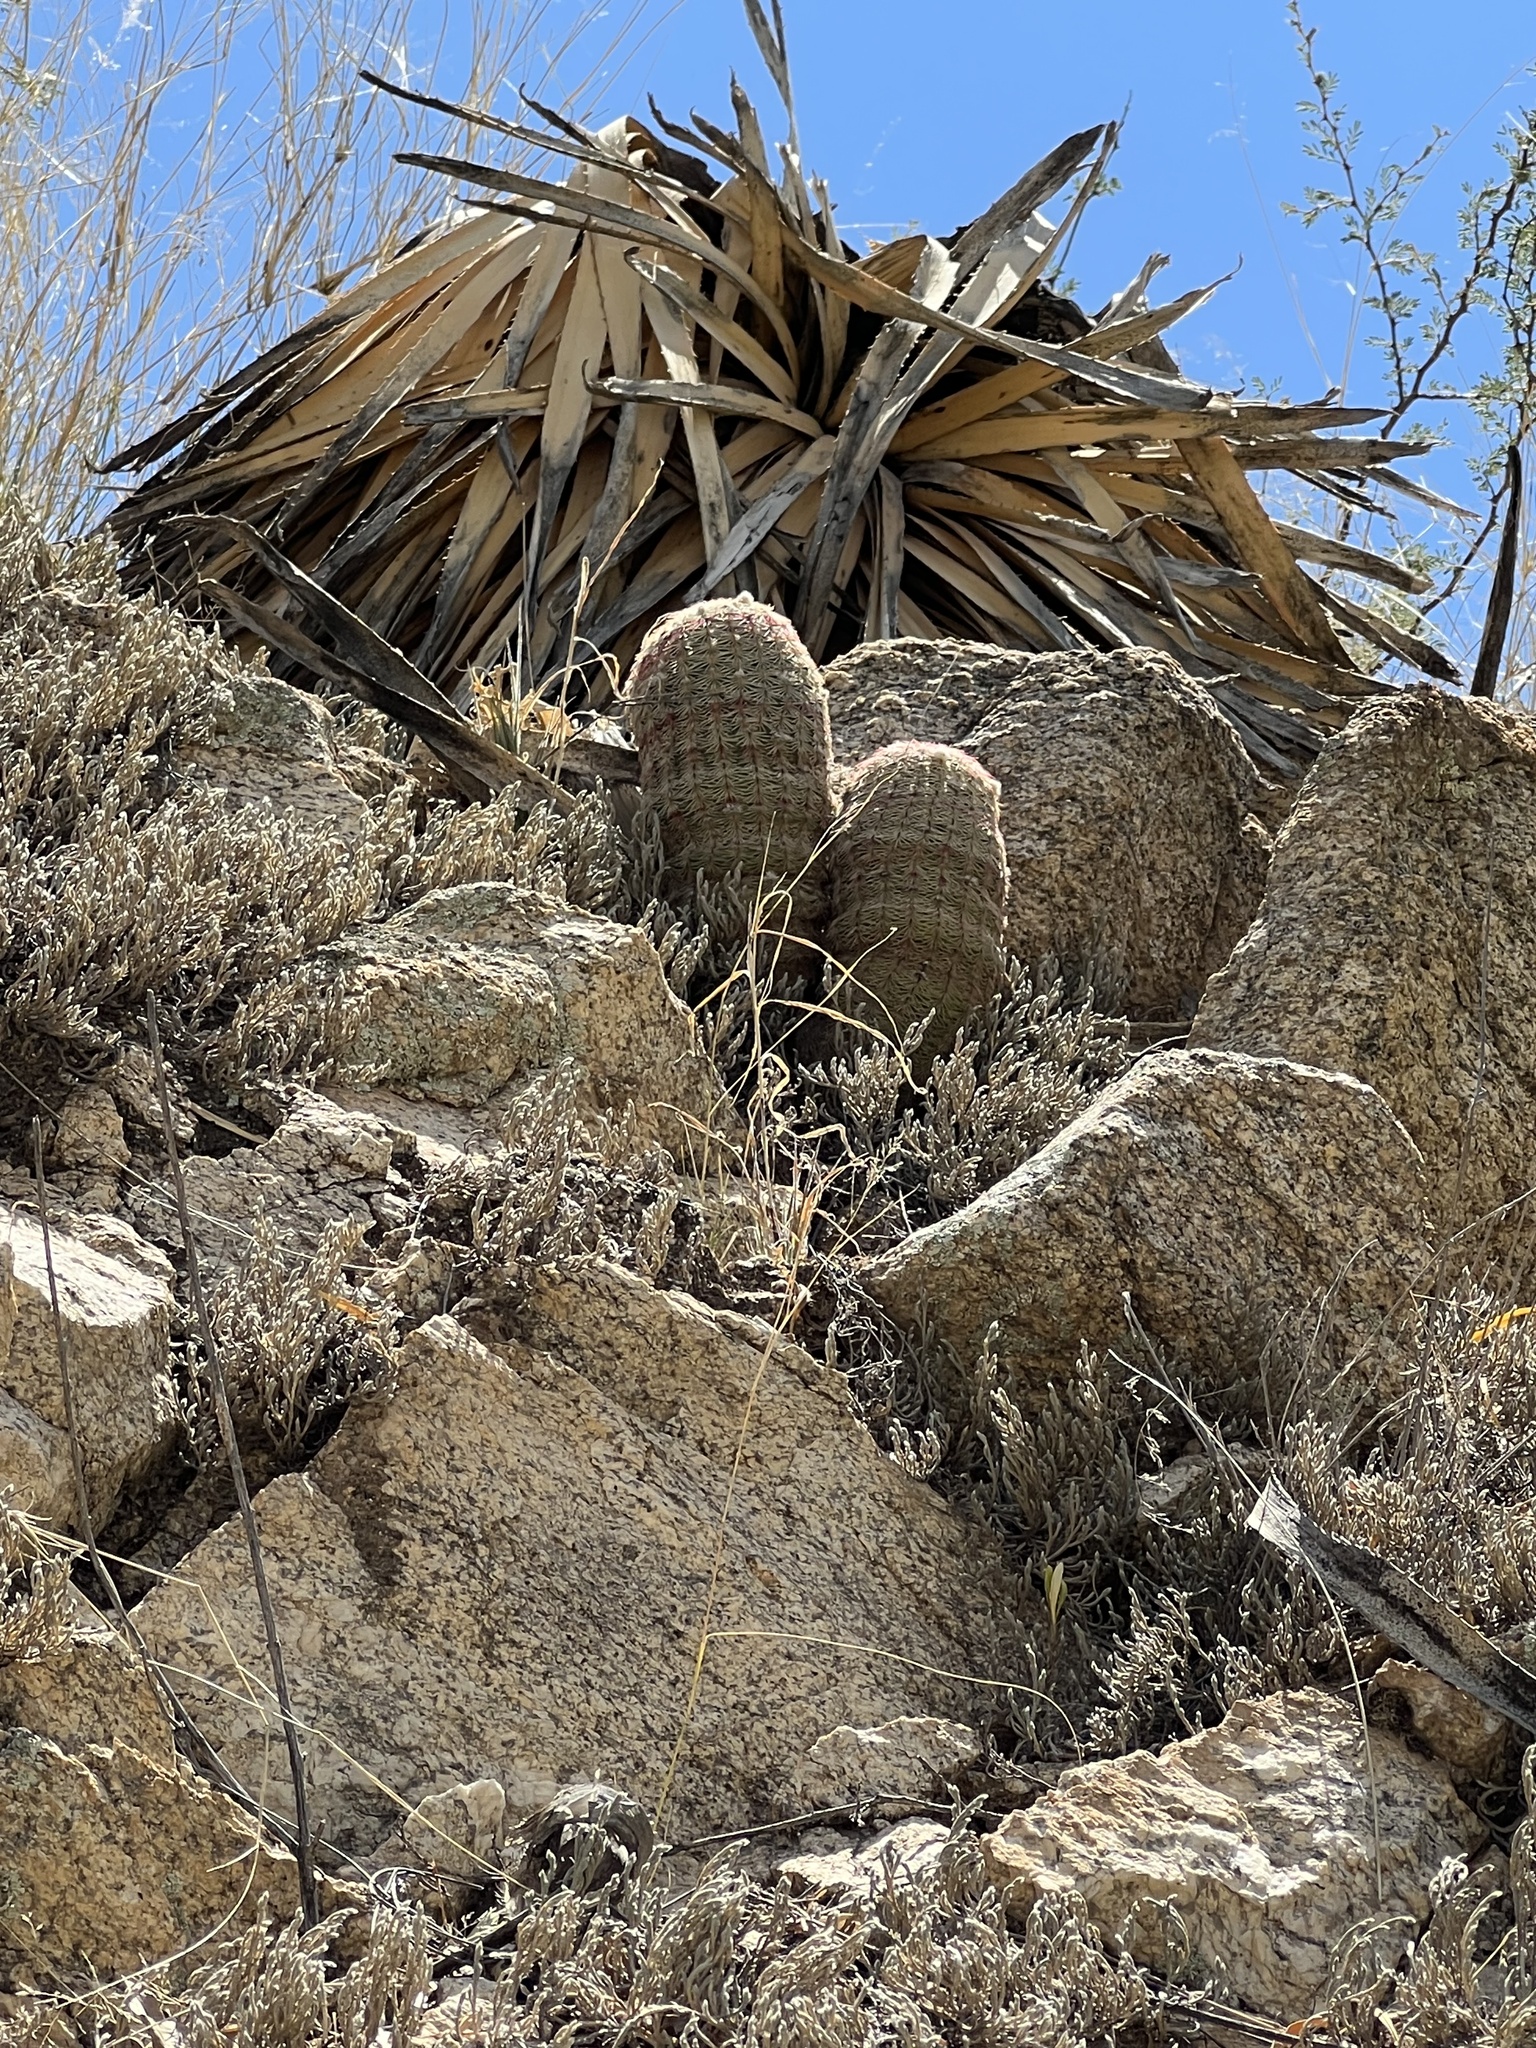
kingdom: Plantae
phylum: Tracheophyta
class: Magnoliopsida
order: Caryophyllales
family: Cactaceae
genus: Echinocereus
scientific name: Echinocereus rigidissimus
